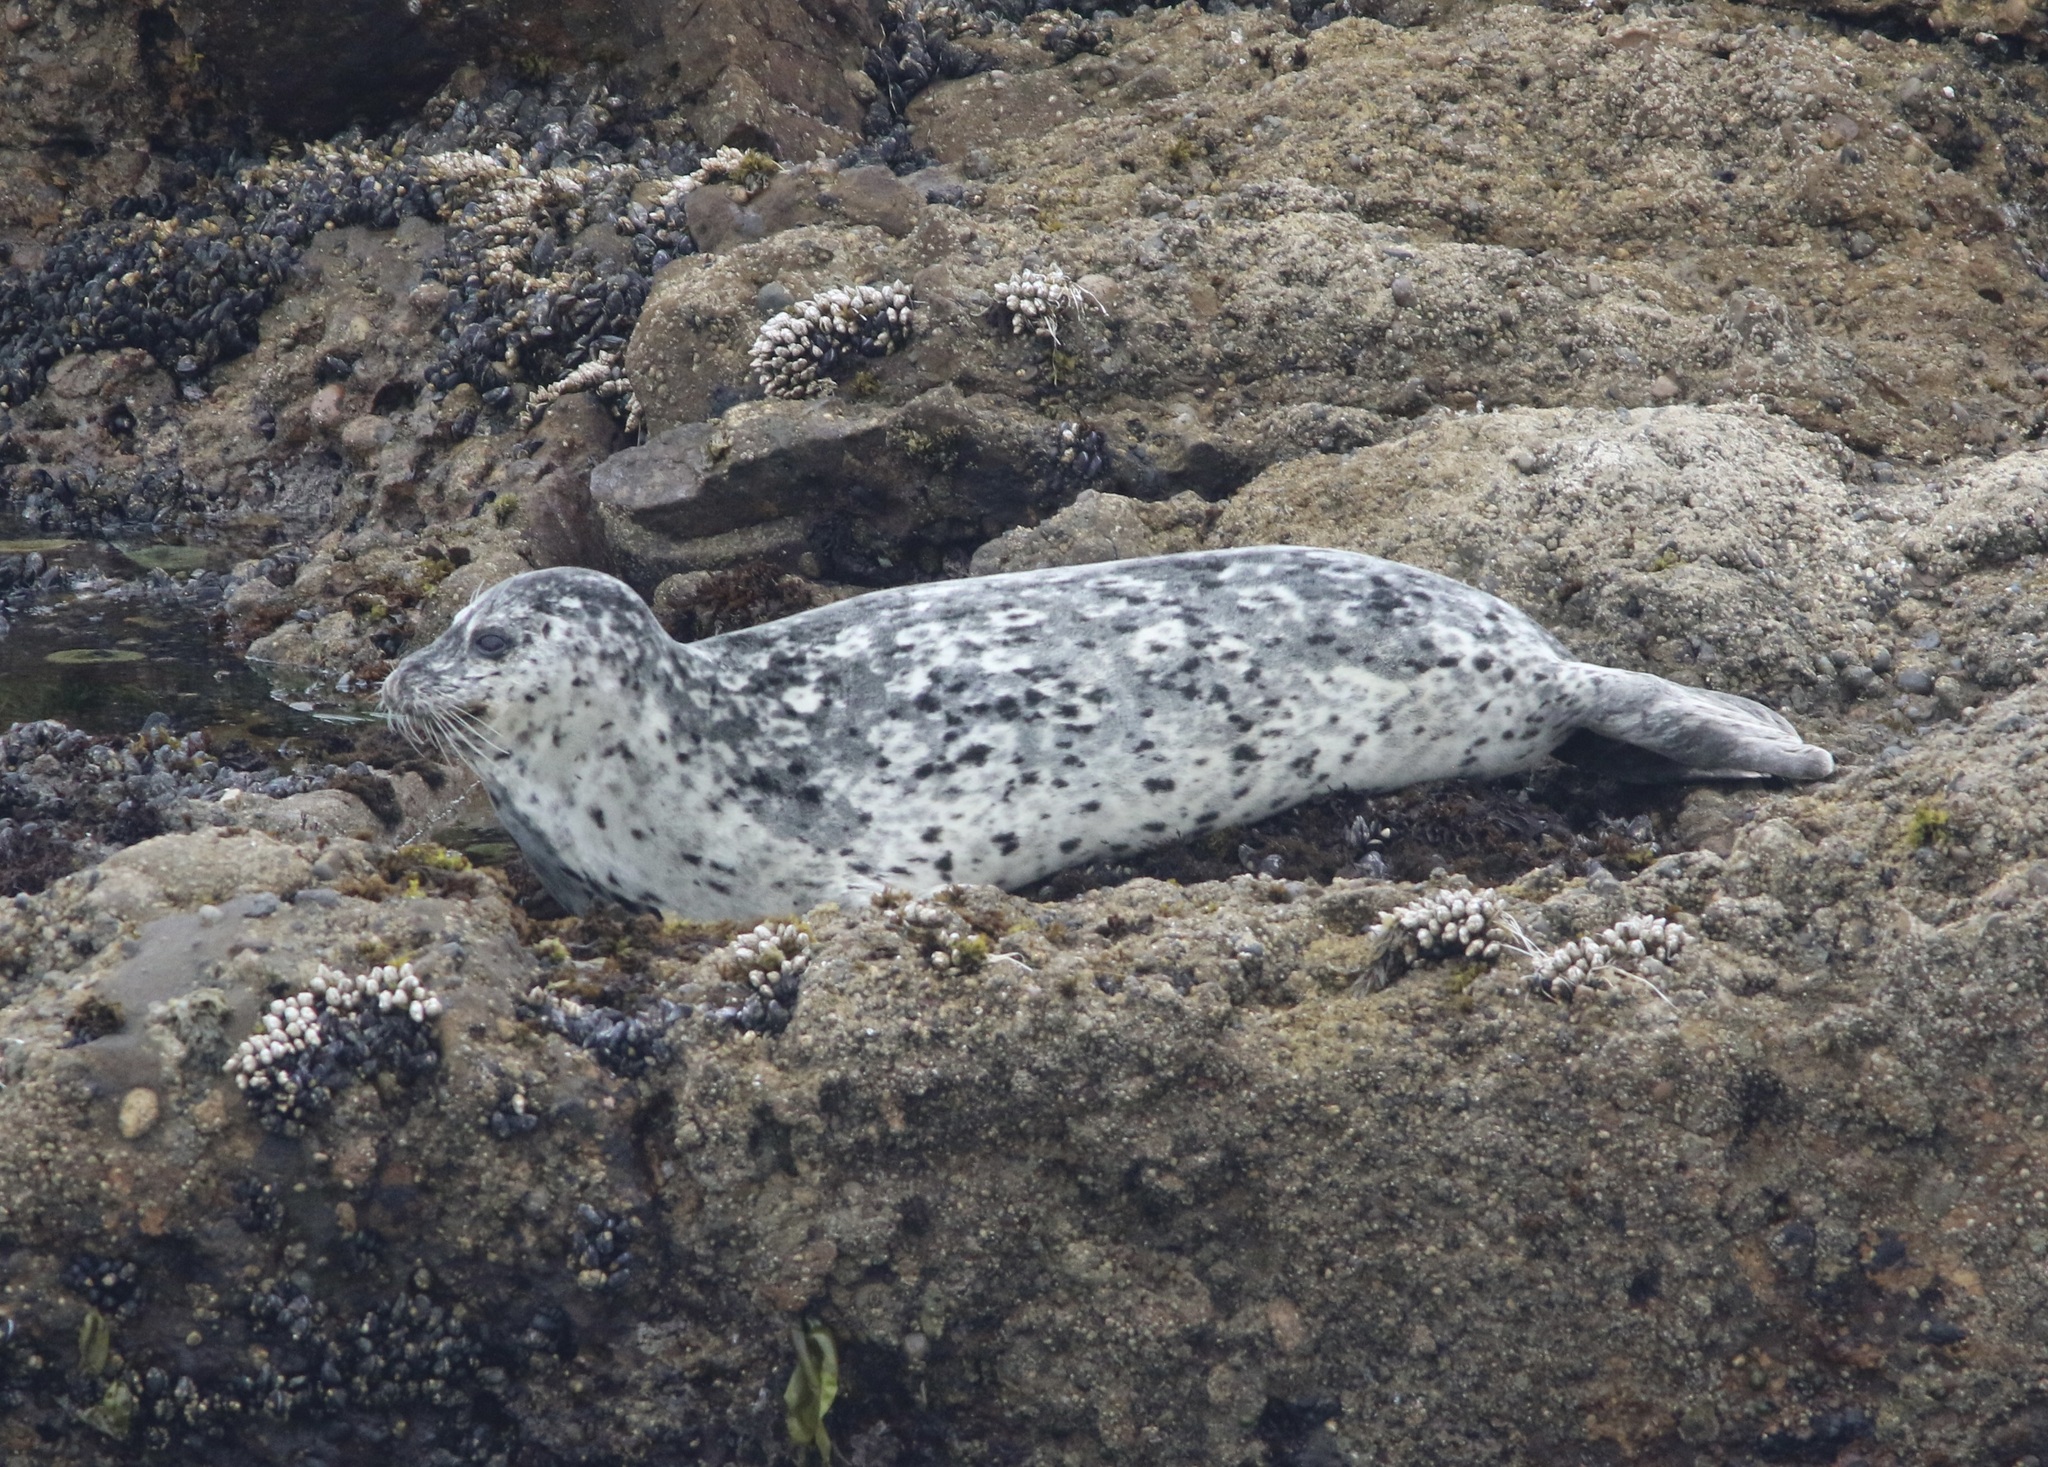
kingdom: Animalia
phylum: Chordata
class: Mammalia
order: Carnivora
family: Phocidae
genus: Phoca
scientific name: Phoca vitulina
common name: Harbor seal
